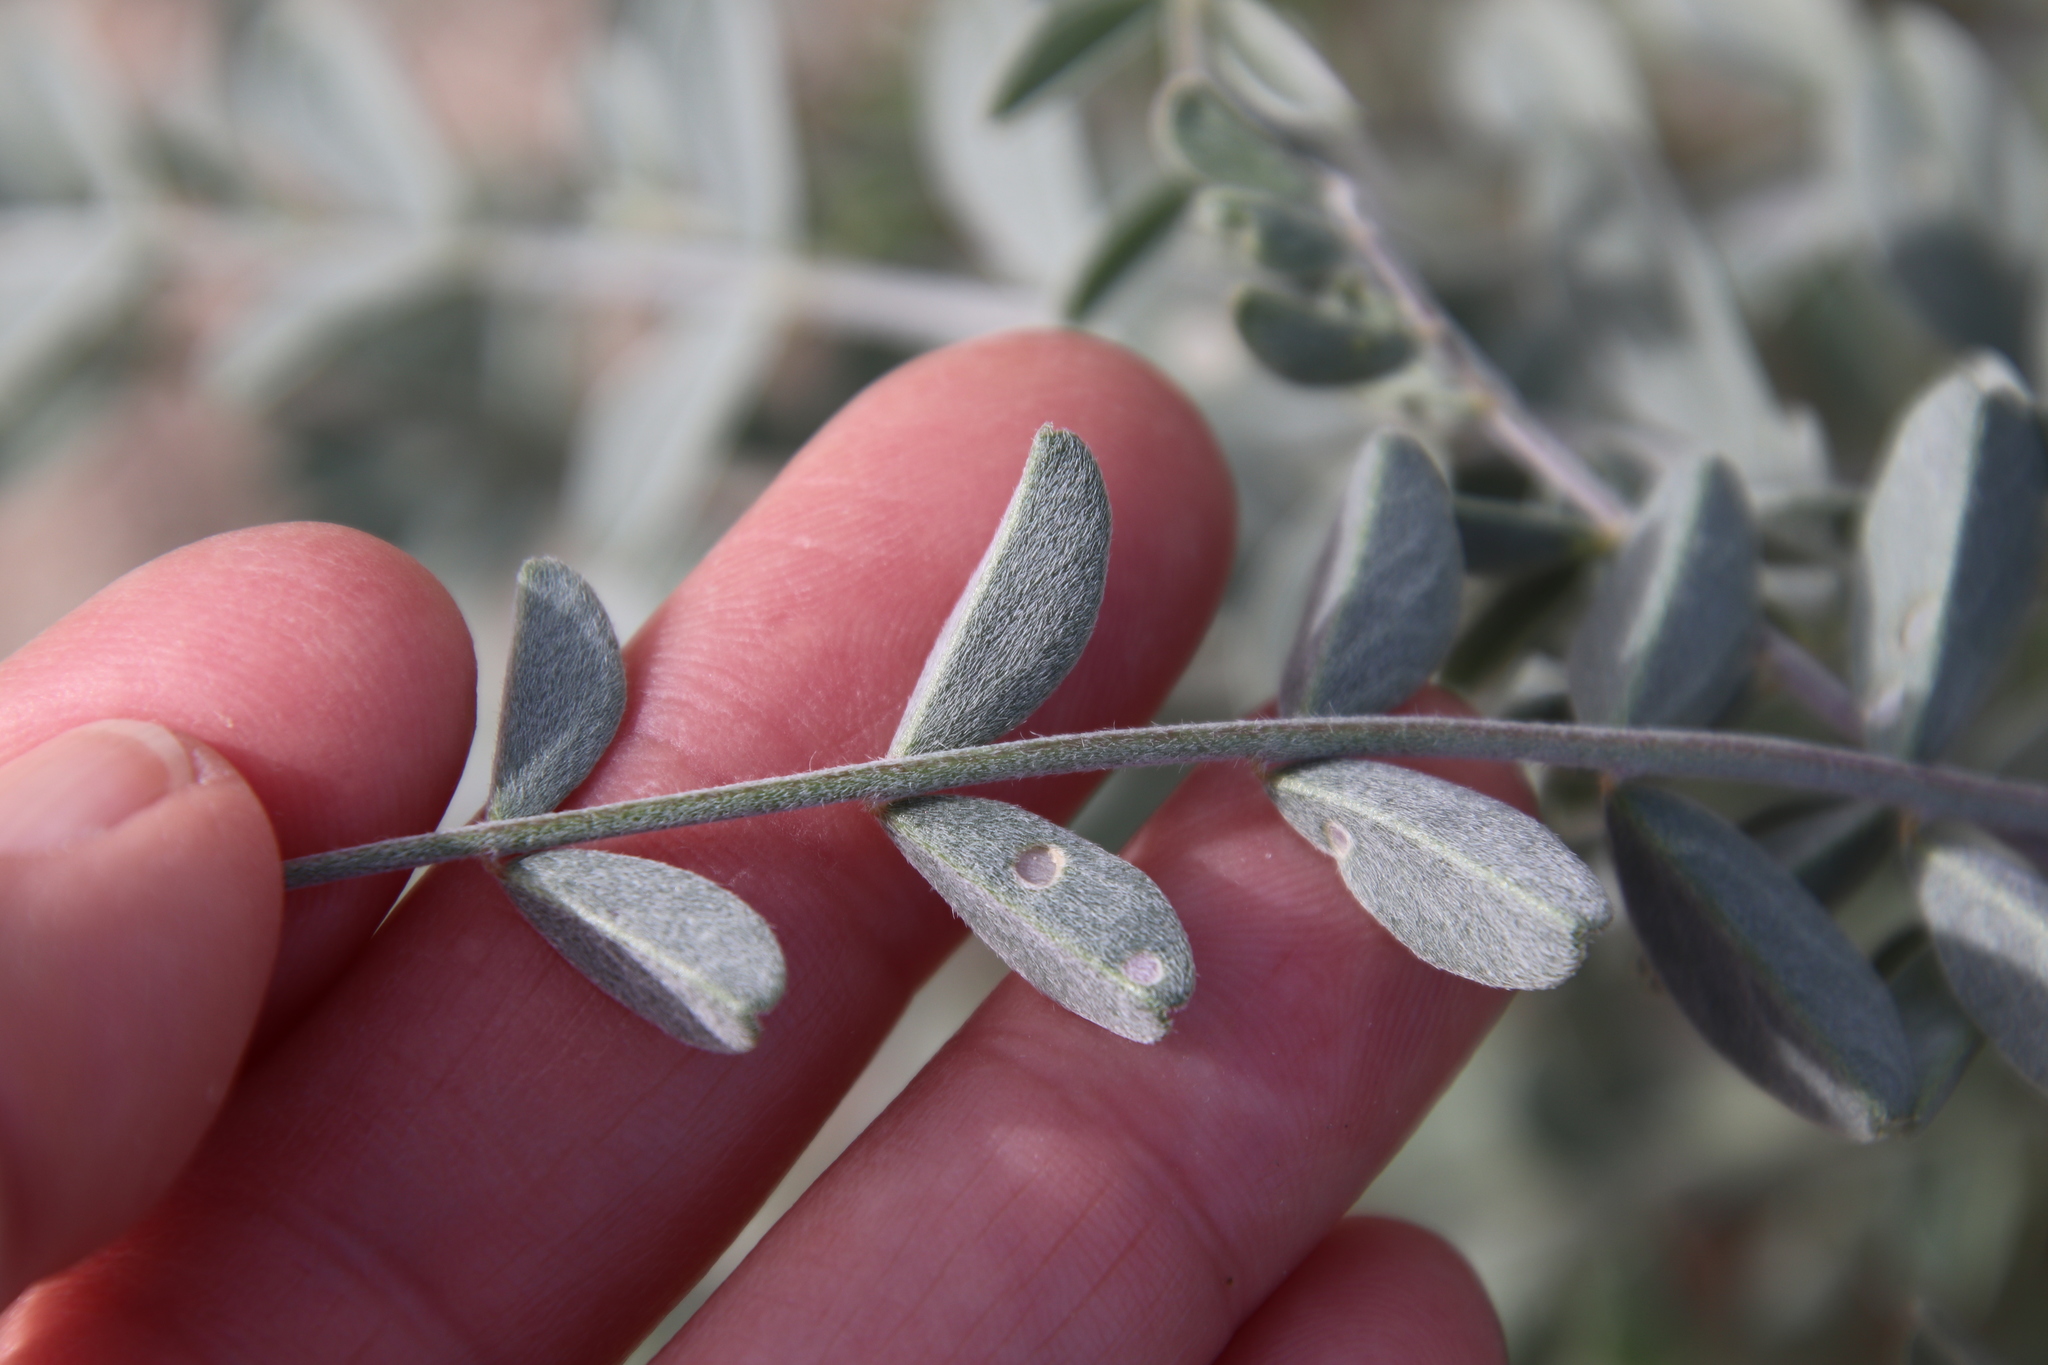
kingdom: Plantae
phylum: Tracheophyta
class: Magnoliopsida
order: Fabales
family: Fabaceae
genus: Astragalus
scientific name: Astragalus lentiginosus
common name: Freckled milkvetch
